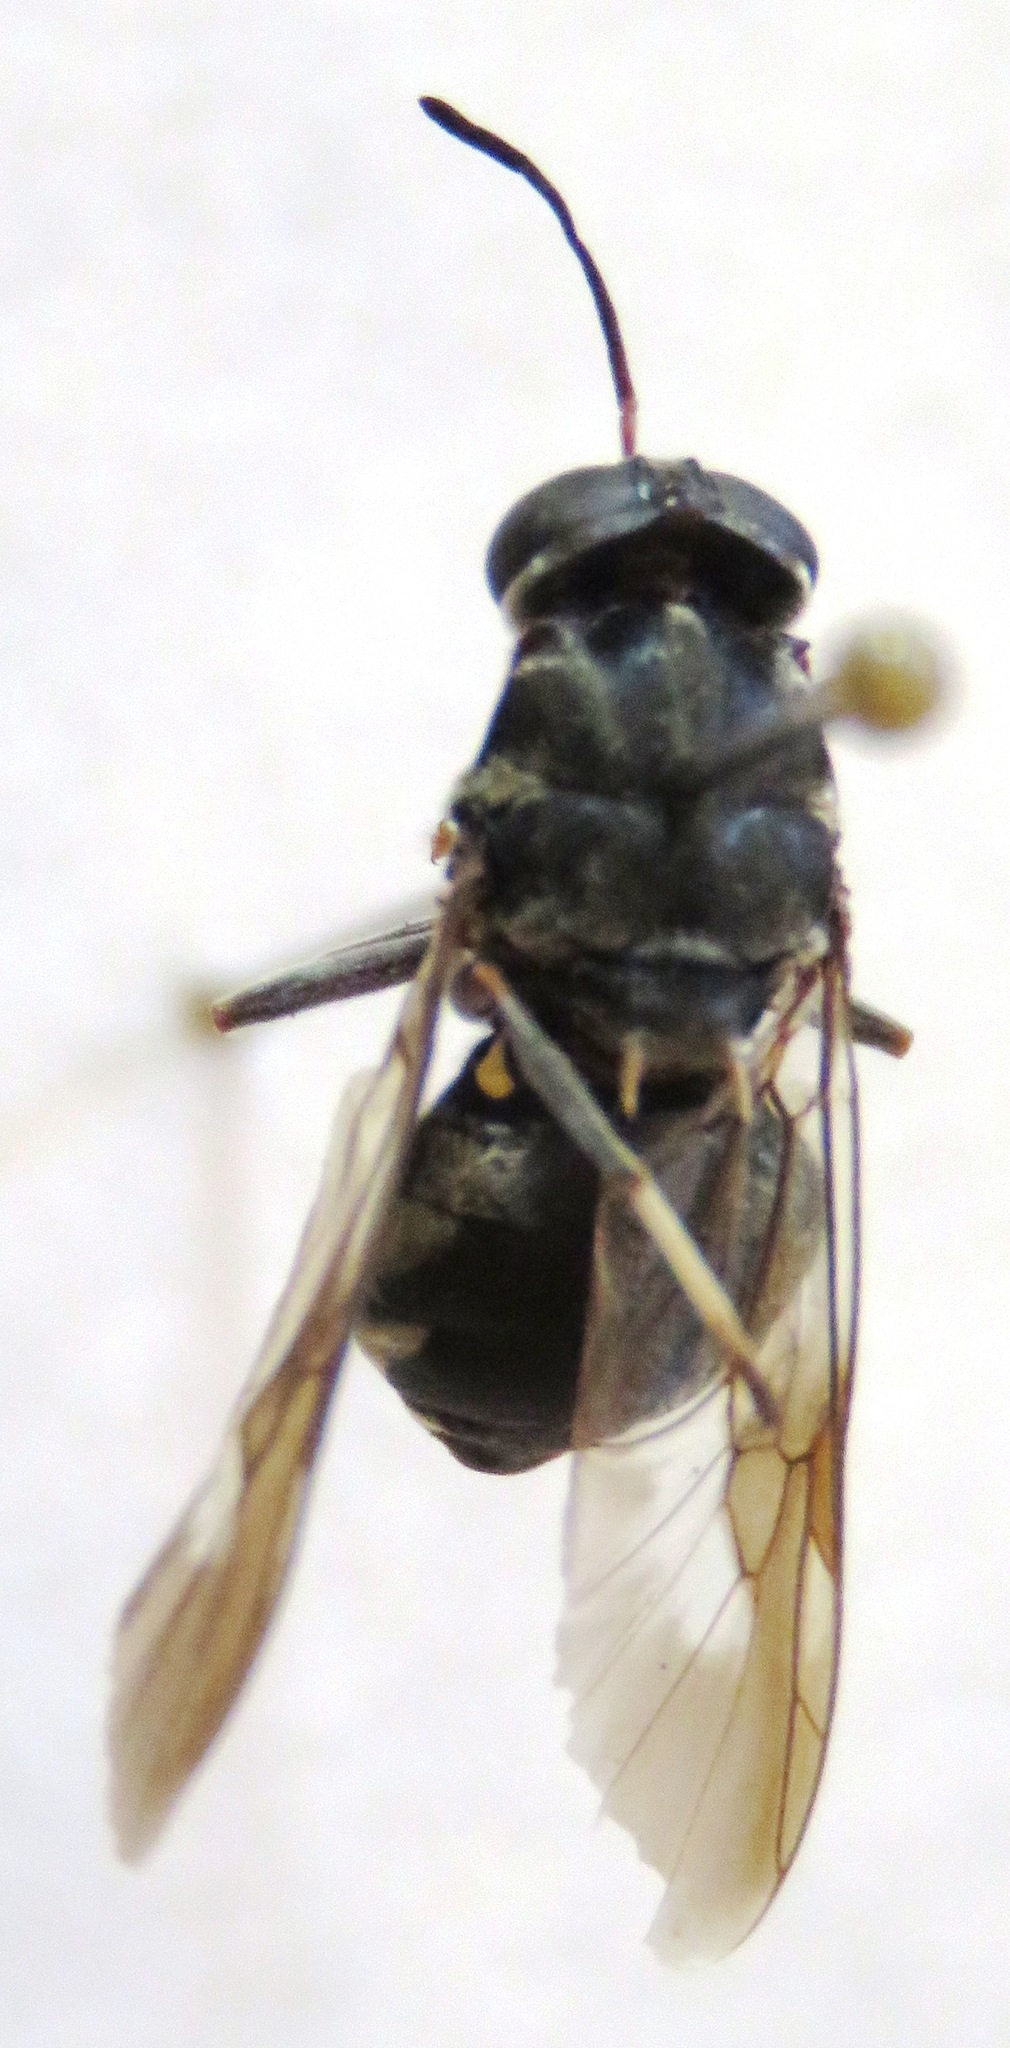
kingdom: Animalia
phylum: Arthropoda
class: Insecta
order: Diptera
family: Stratiomyidae
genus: Cyphomyia
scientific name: Cyphomyia albitarsis
